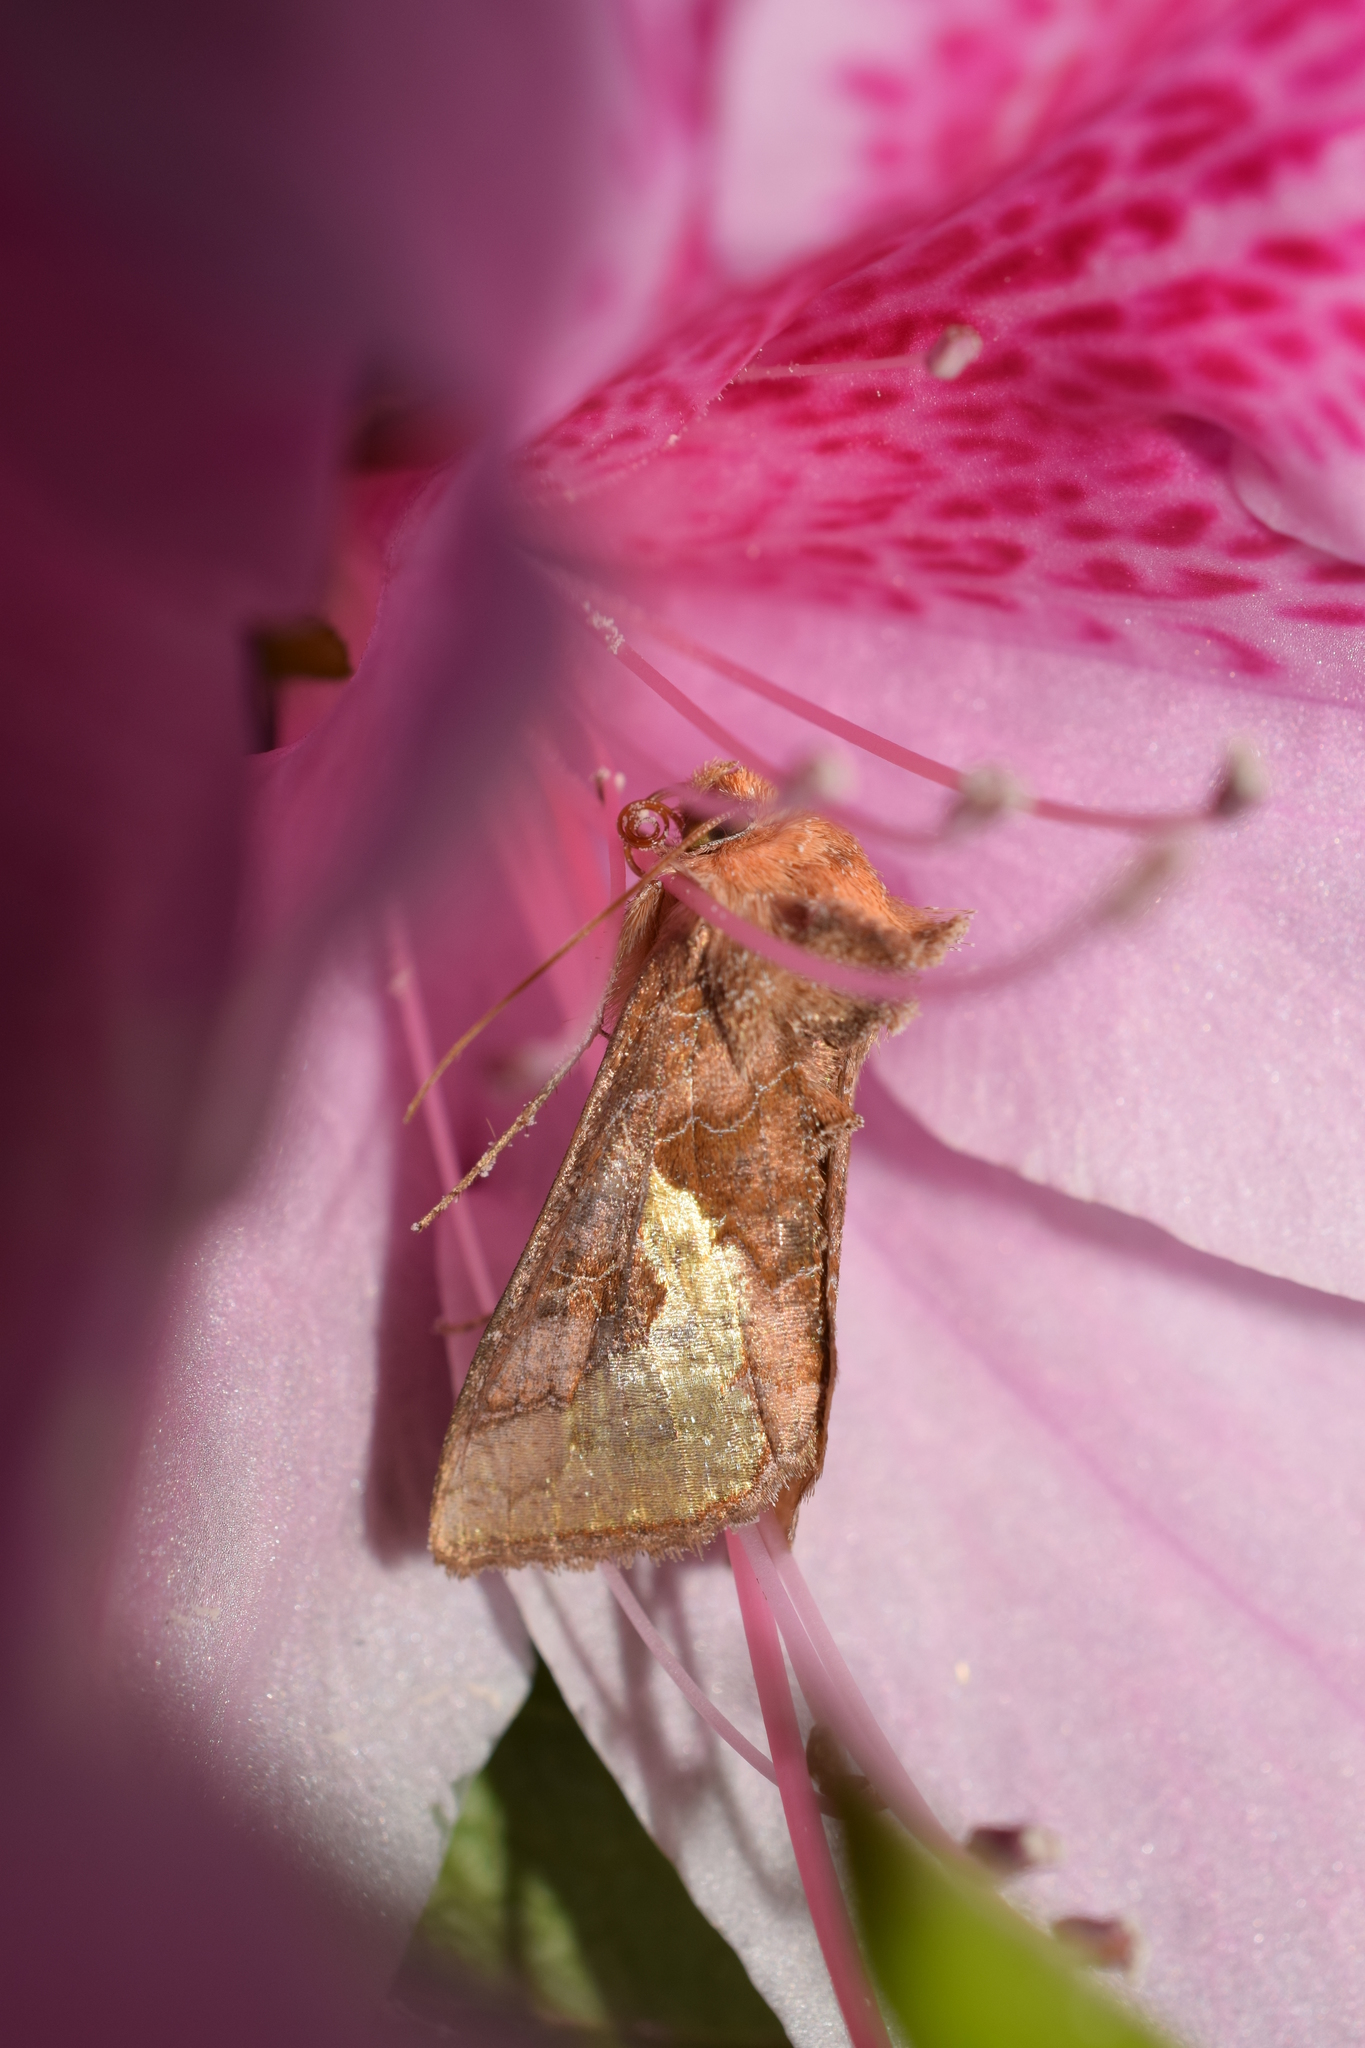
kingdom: Animalia
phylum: Arthropoda
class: Insecta
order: Lepidoptera
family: Noctuidae
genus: Thysanoplusia
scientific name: Thysanoplusia intermixta
